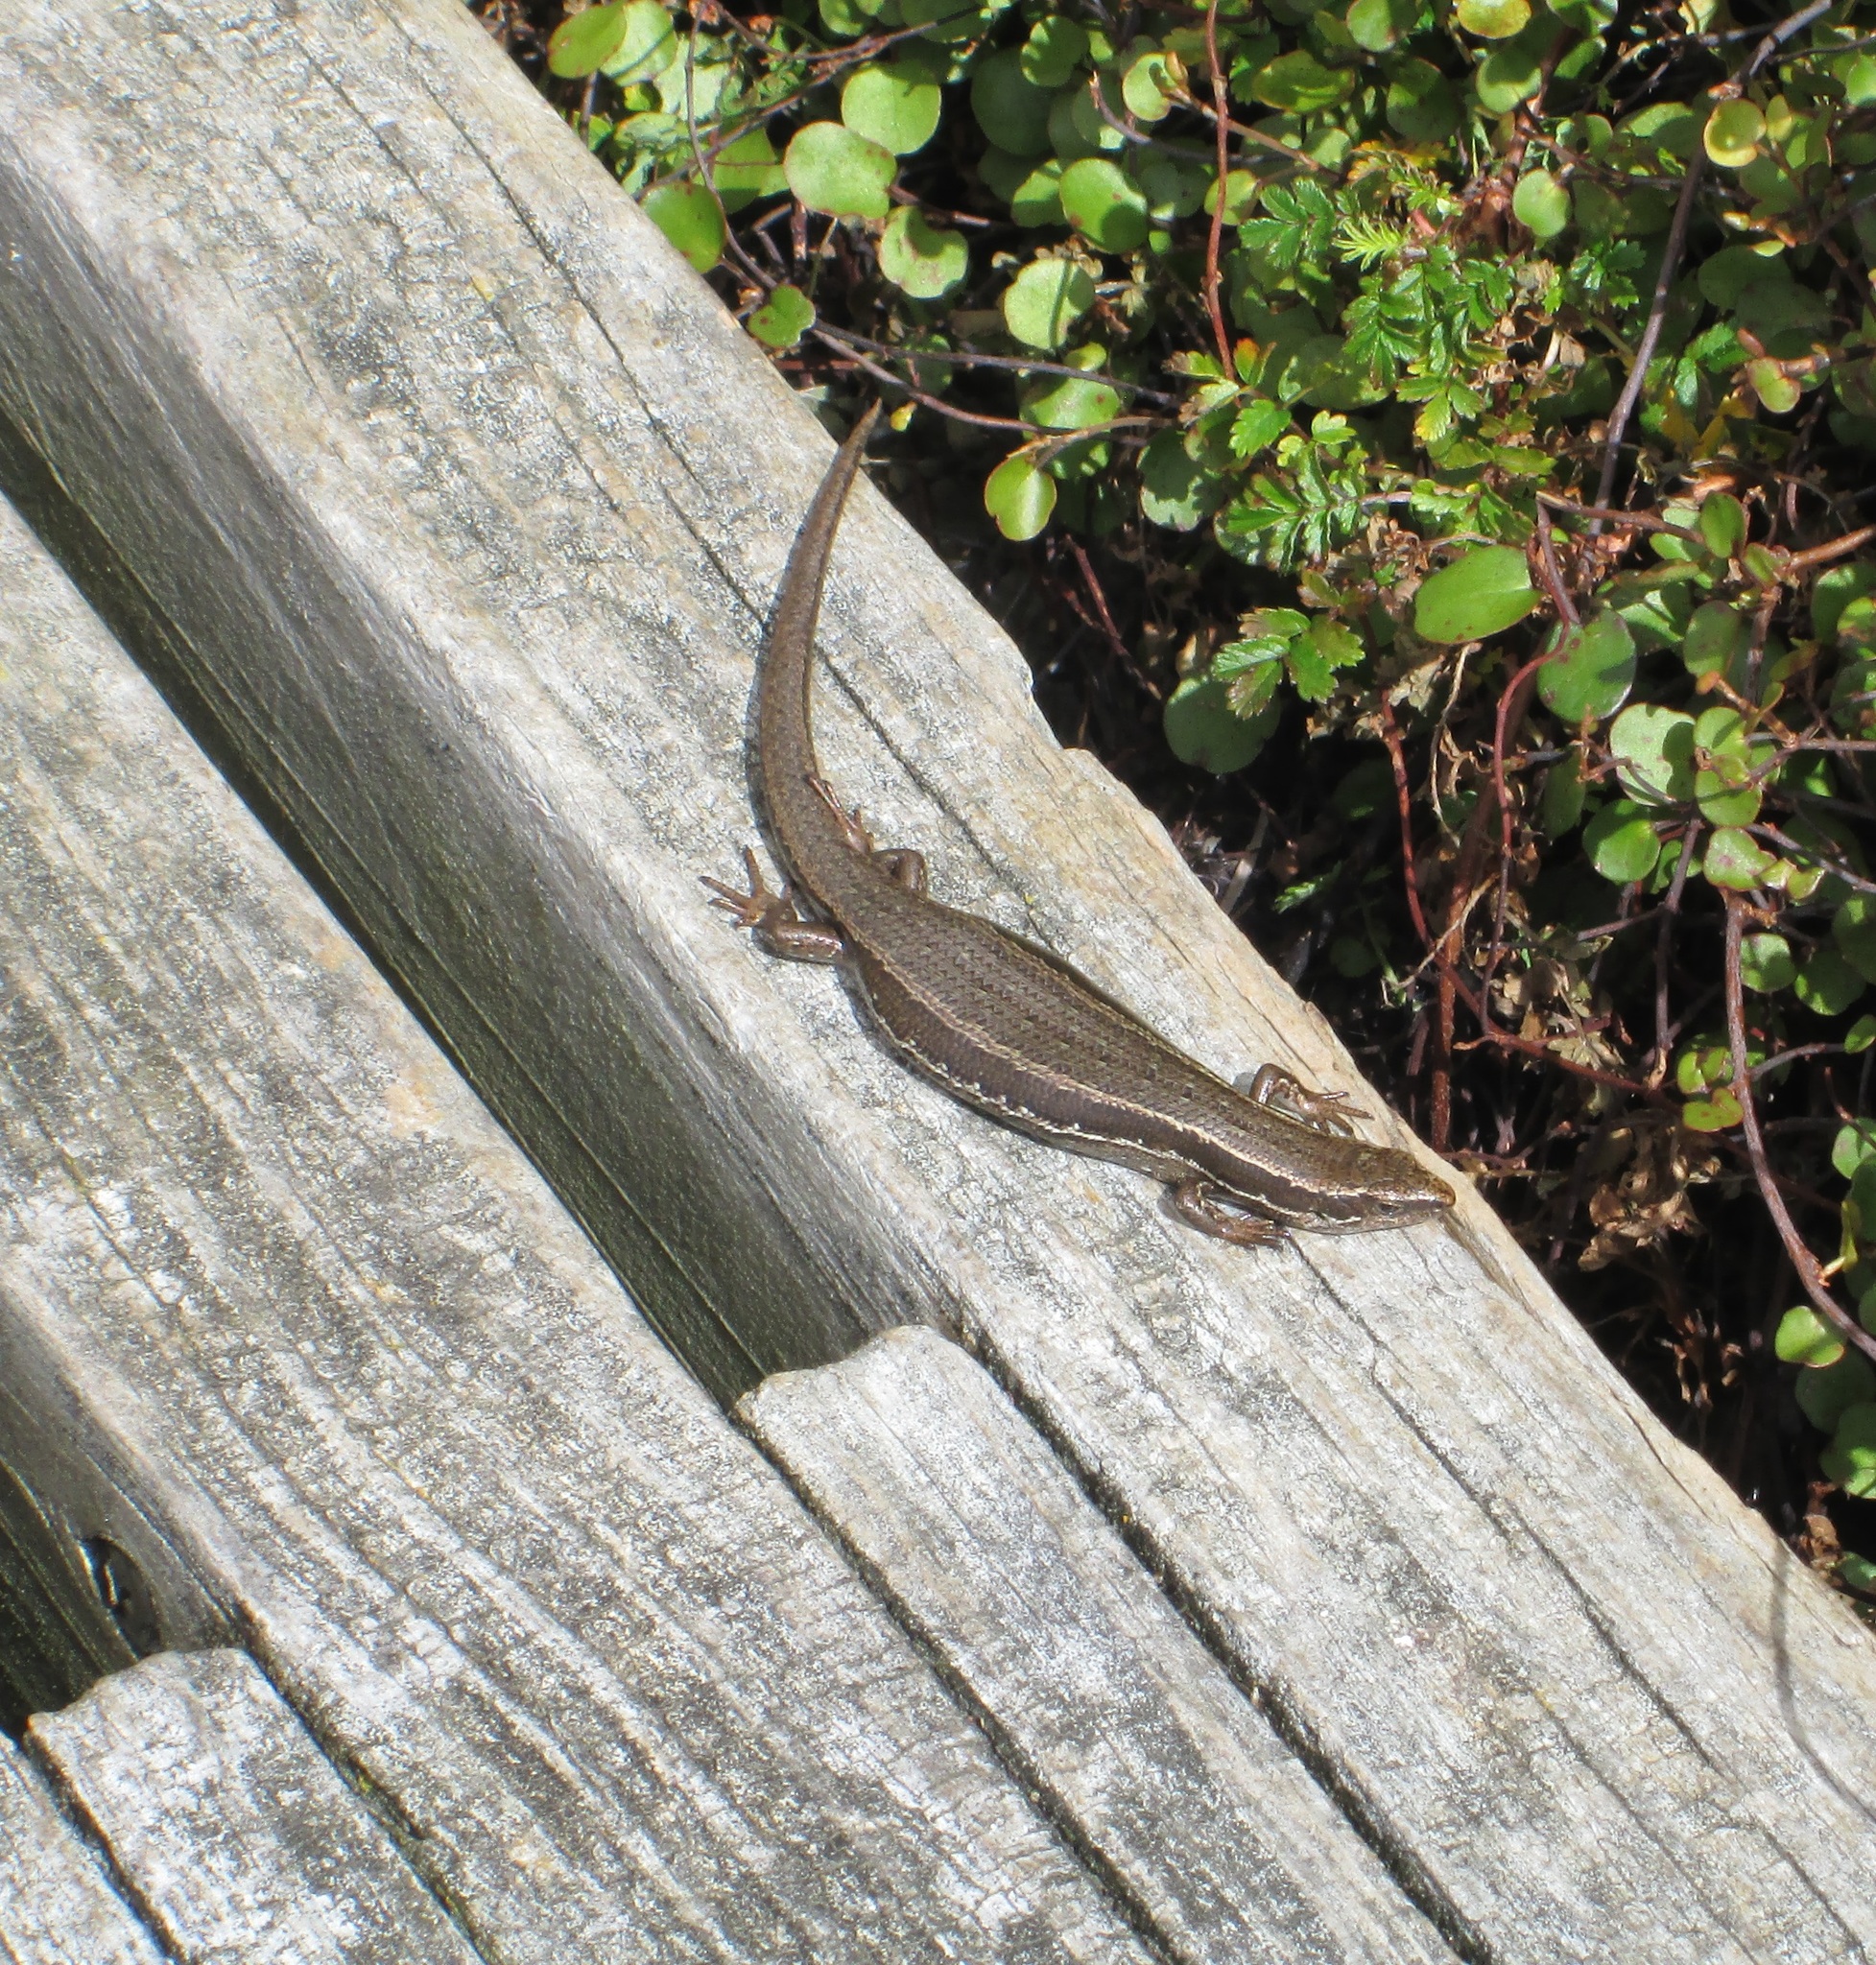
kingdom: Animalia
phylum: Chordata
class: Squamata
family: Scincidae
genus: Oligosoma
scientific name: Oligosoma polychroma
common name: Common new zealand skink
